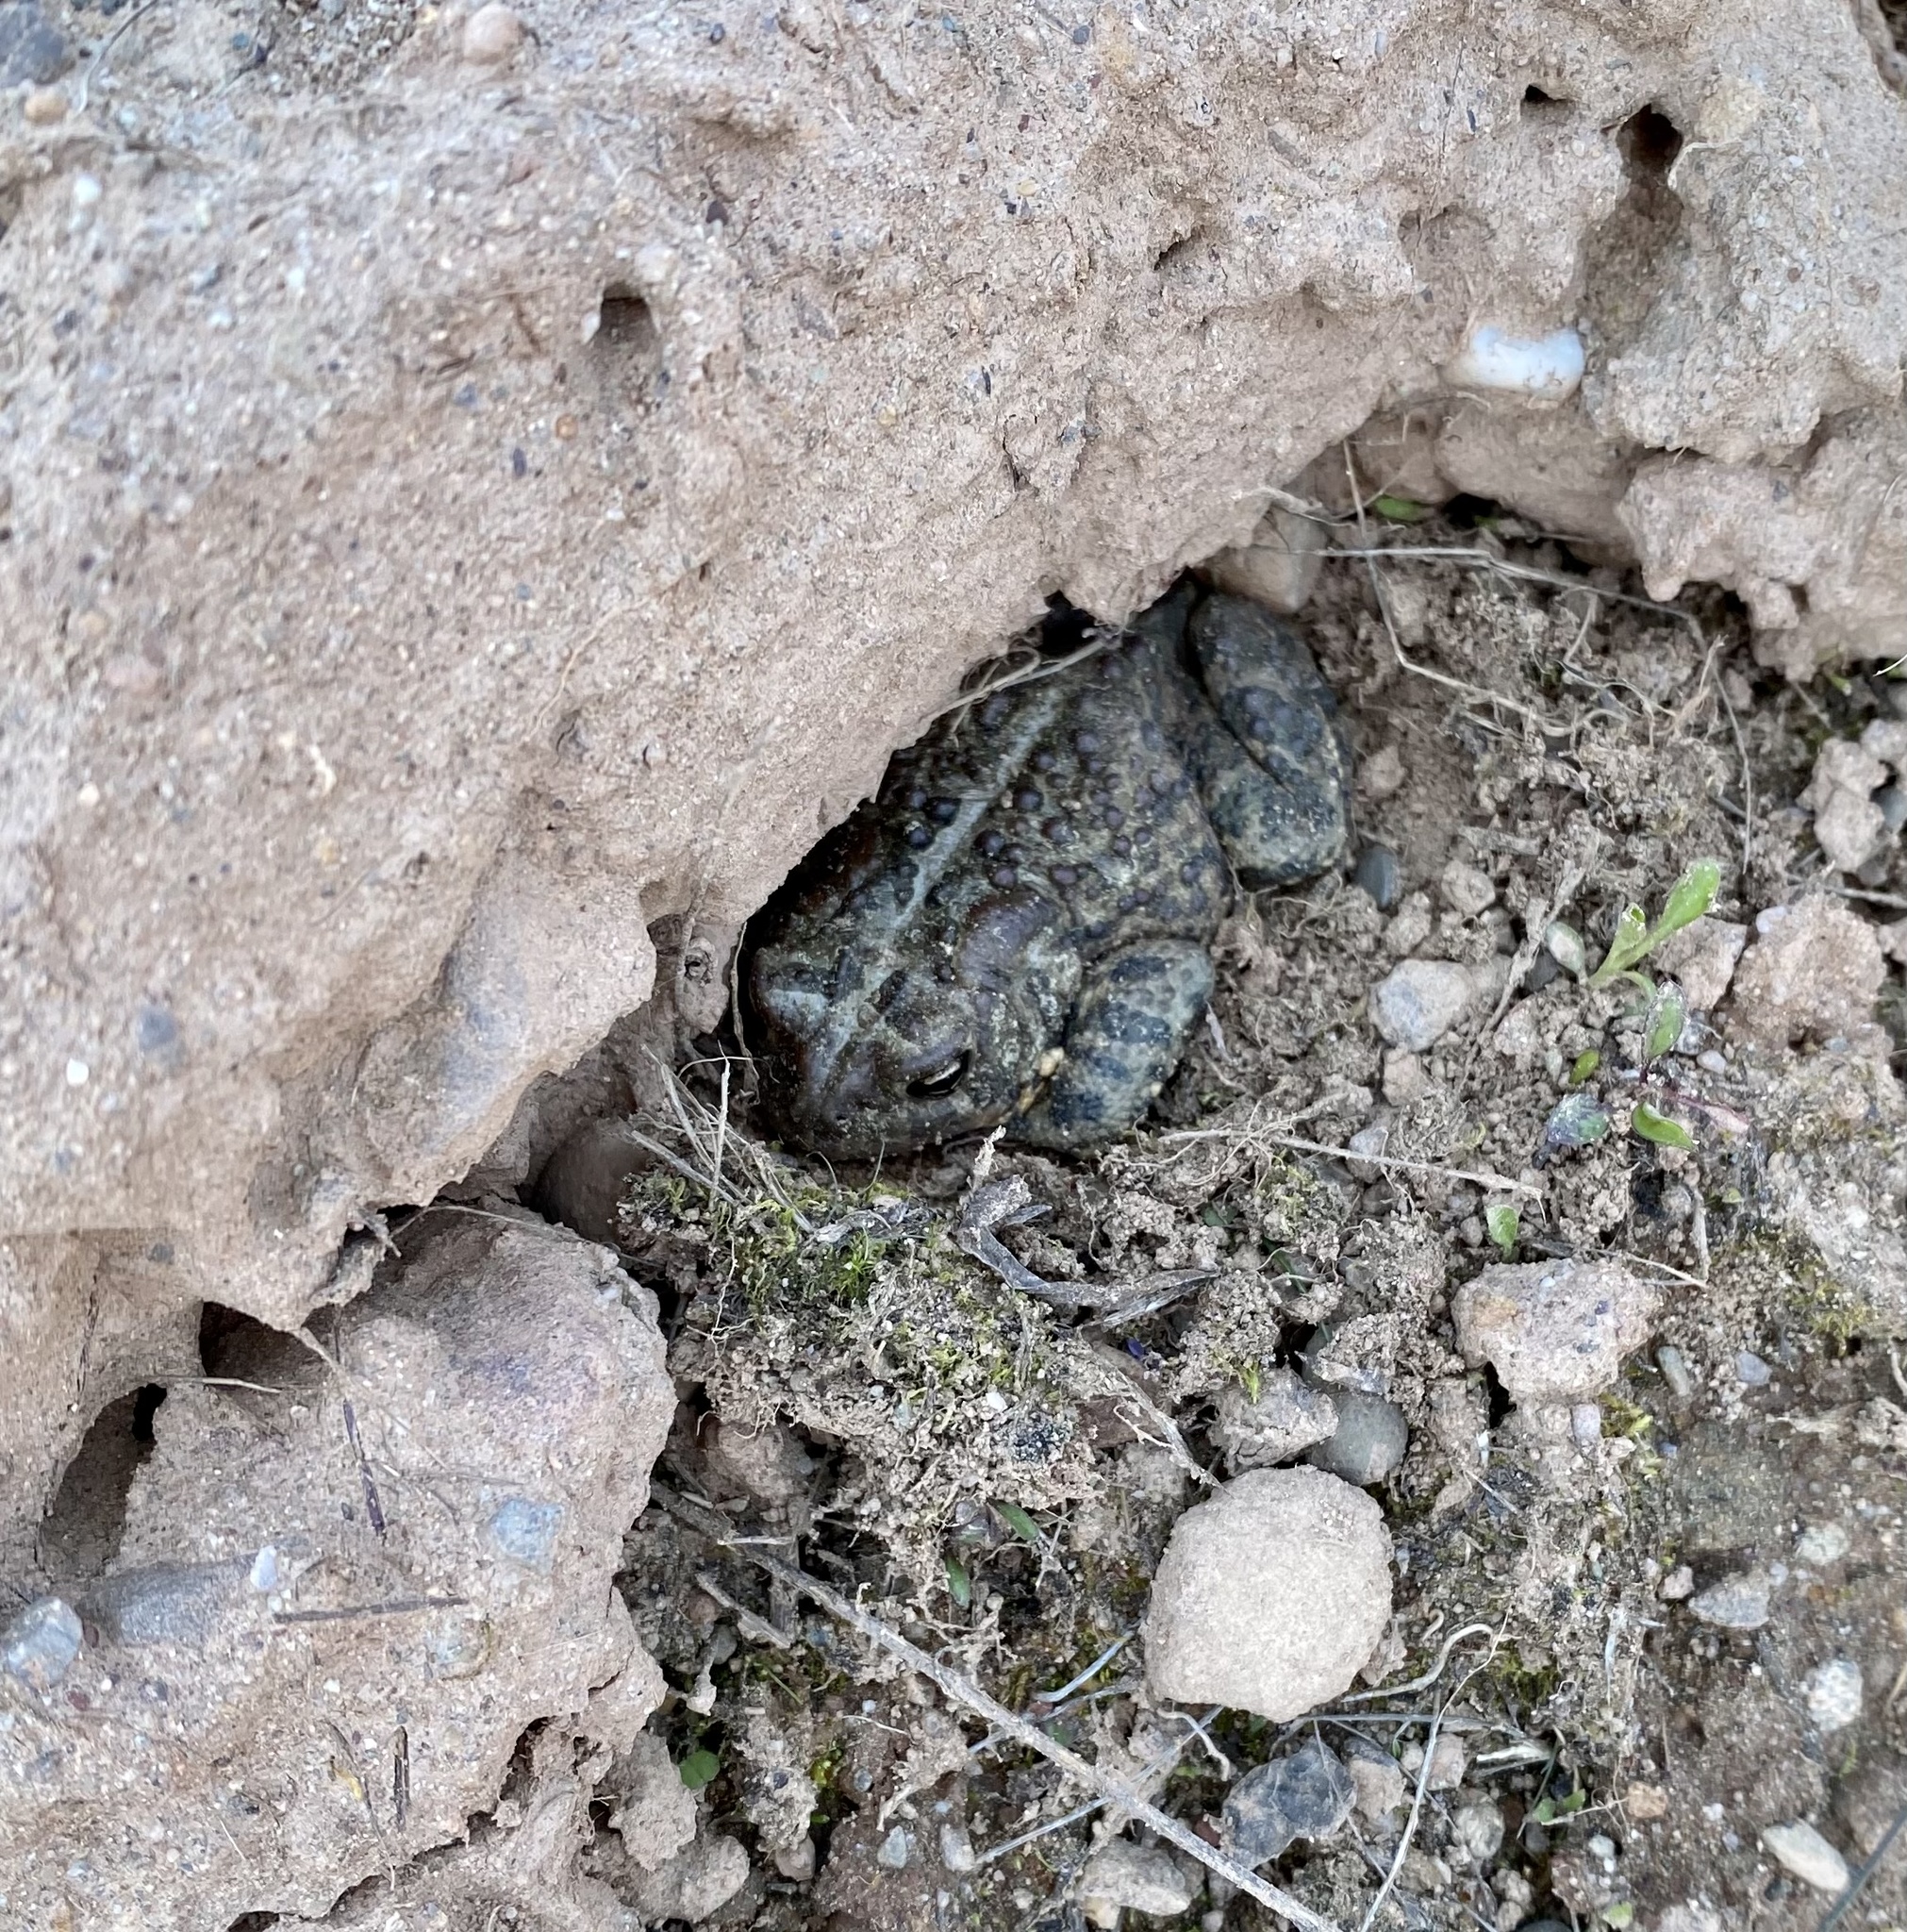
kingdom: Animalia
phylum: Chordata
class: Amphibia
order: Anura
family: Bufonidae
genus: Anaxyrus
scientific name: Anaxyrus americanus
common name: American toad
